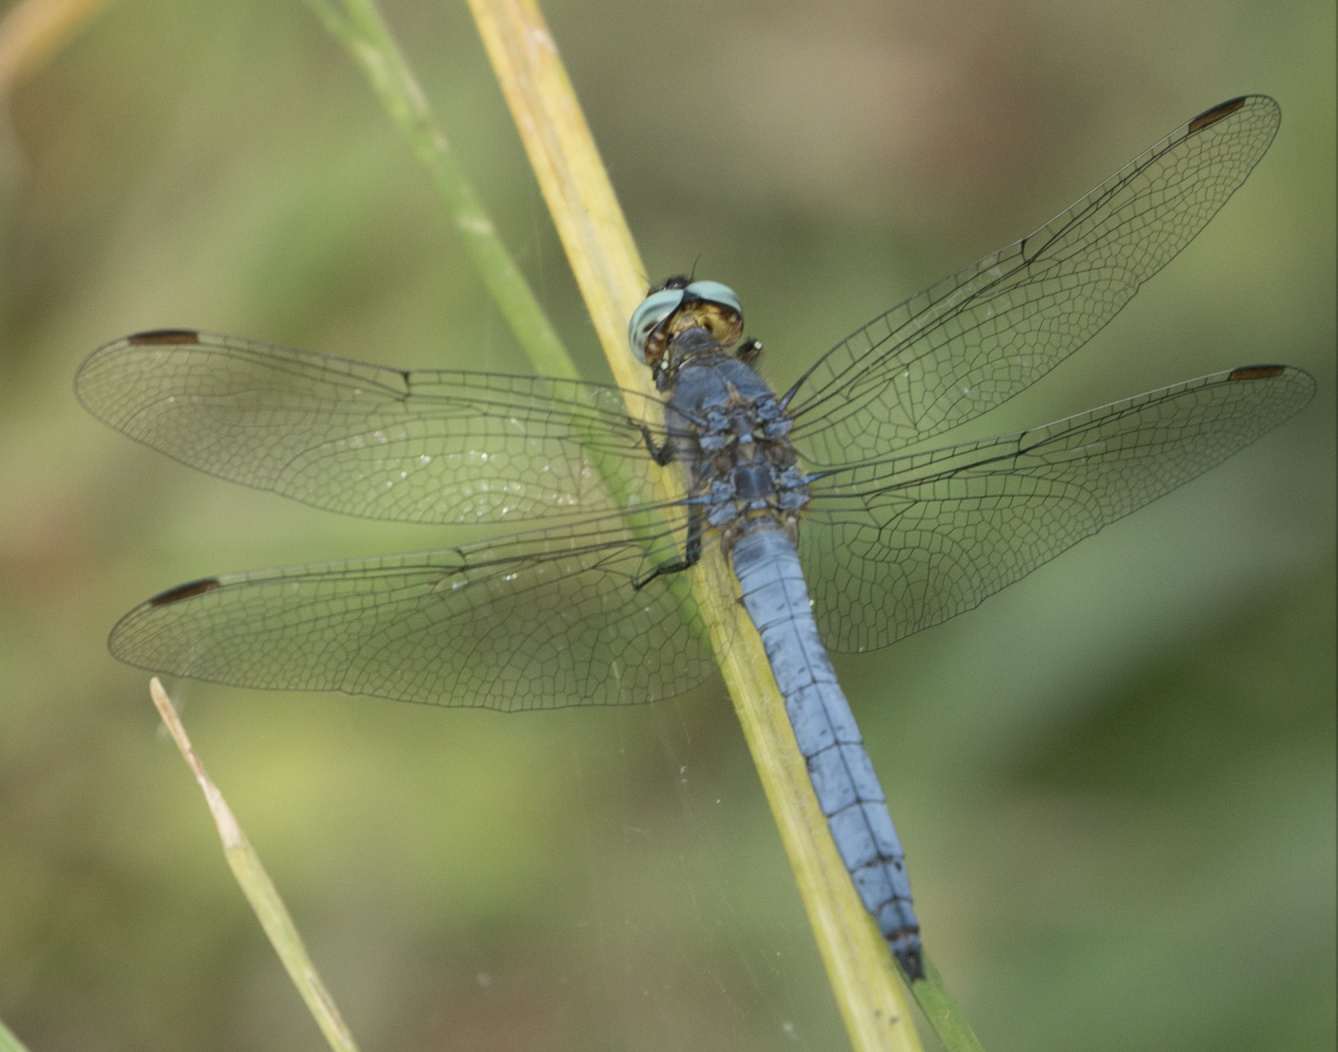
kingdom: Animalia
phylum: Arthropoda
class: Insecta
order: Odonata
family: Libellulidae
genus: Orthetrum
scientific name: Orthetrum coerulescens
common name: Keeled skimmer
